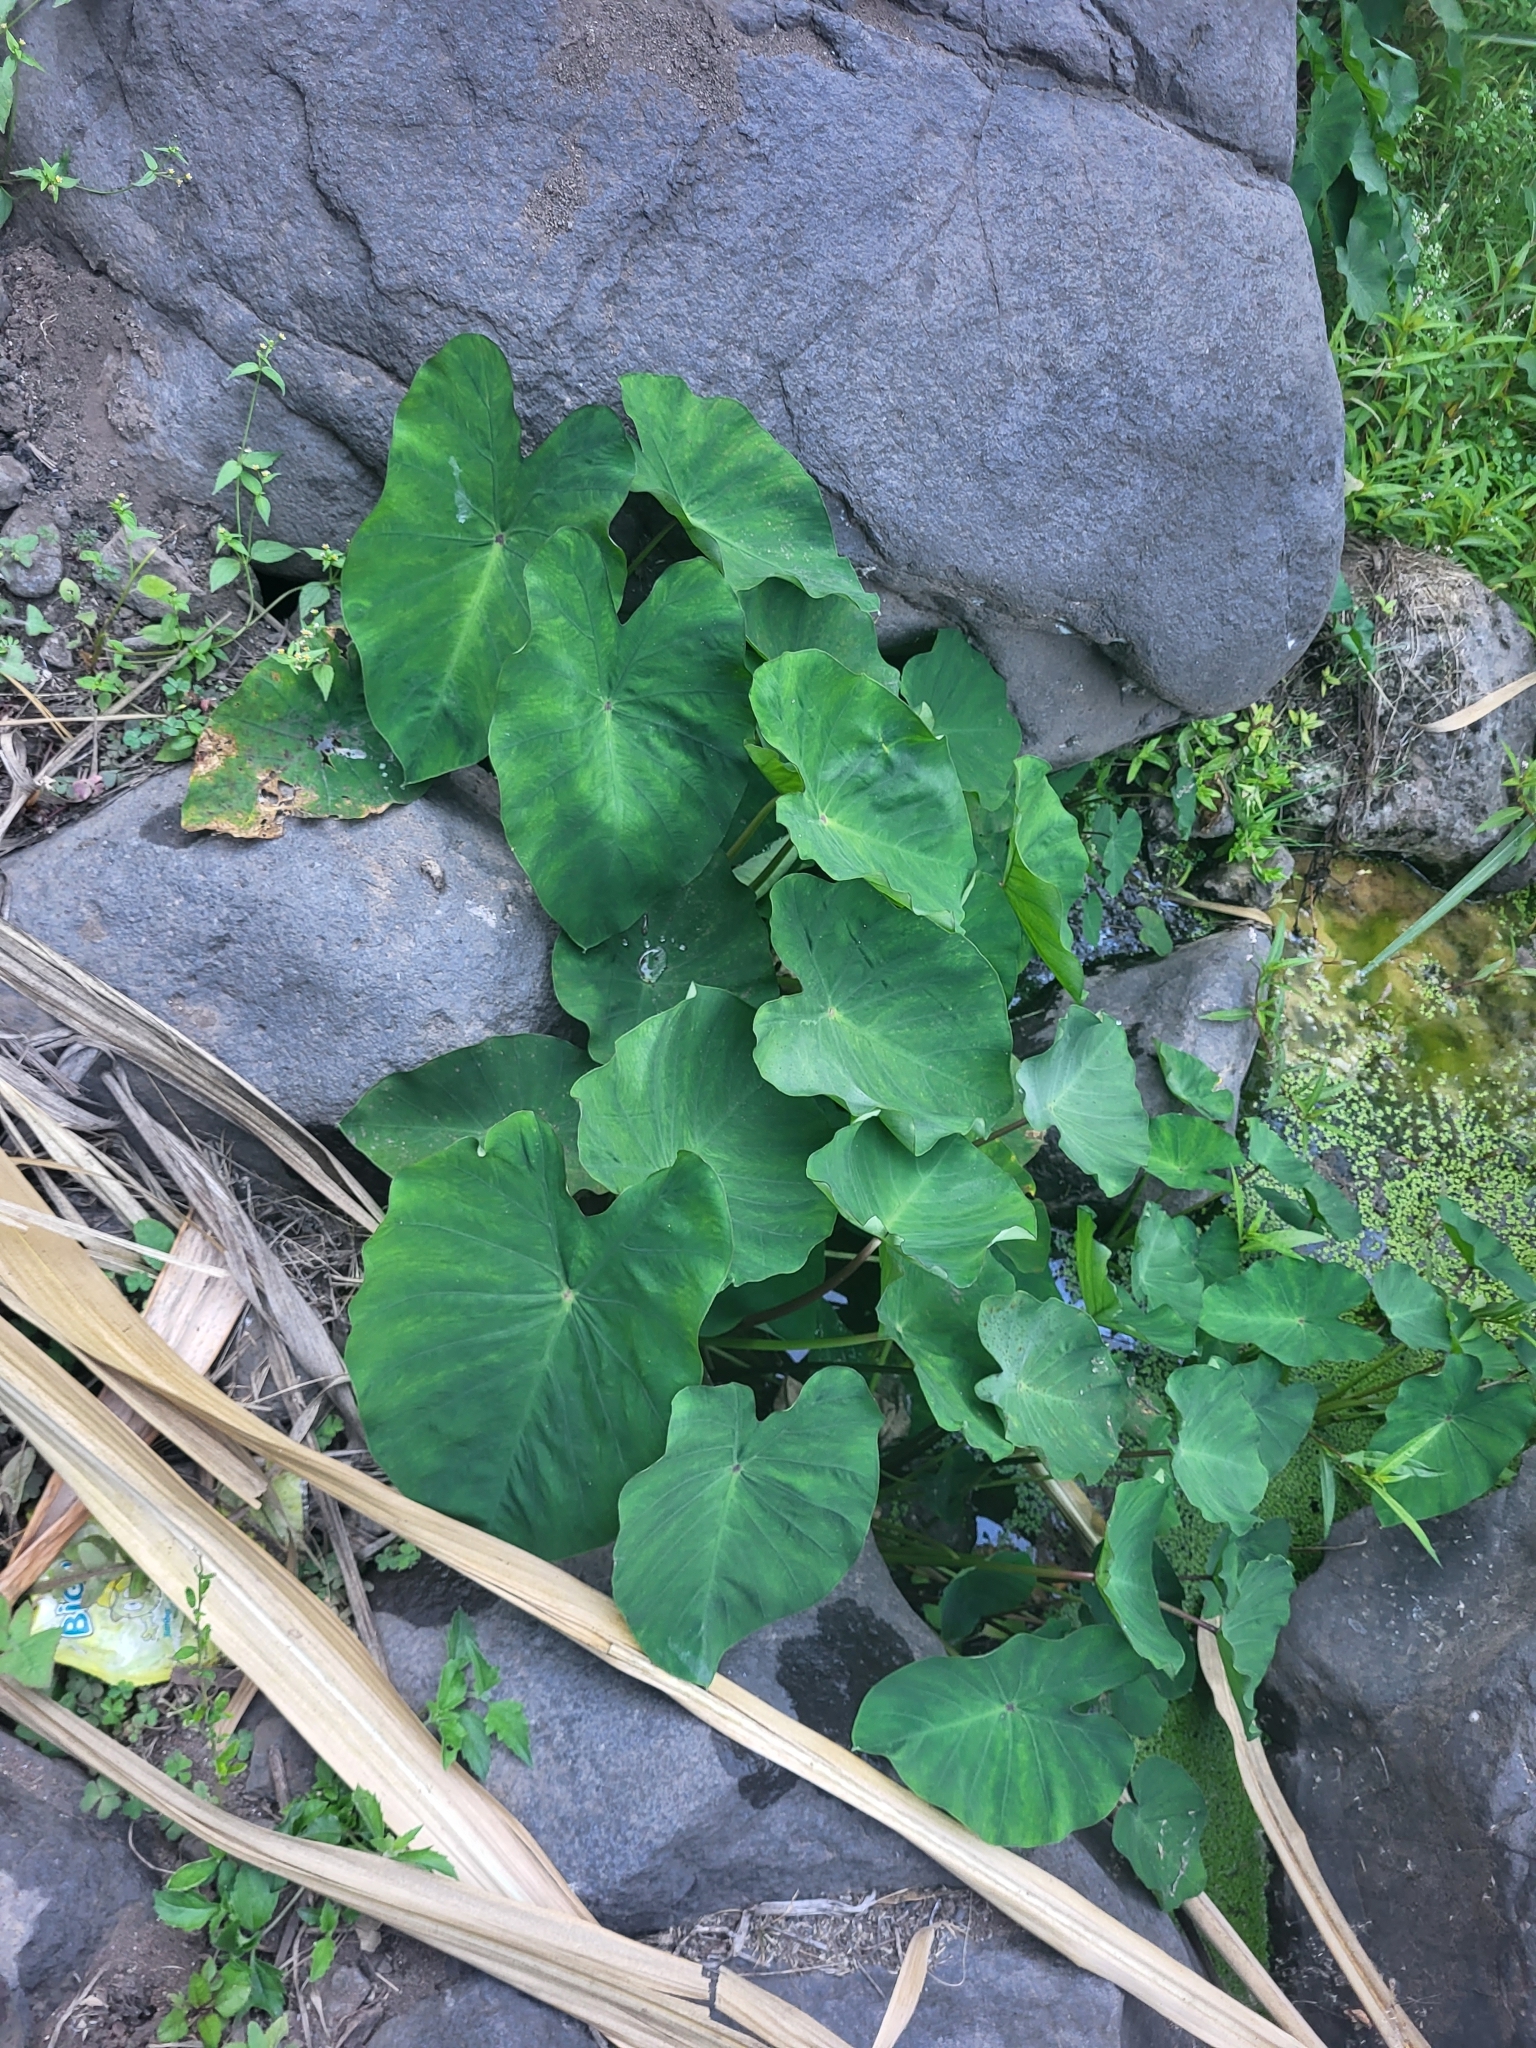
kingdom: Plantae
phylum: Tracheophyta
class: Liliopsida
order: Alismatales
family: Araceae
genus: Colocasia
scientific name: Colocasia esculenta
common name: Taro
